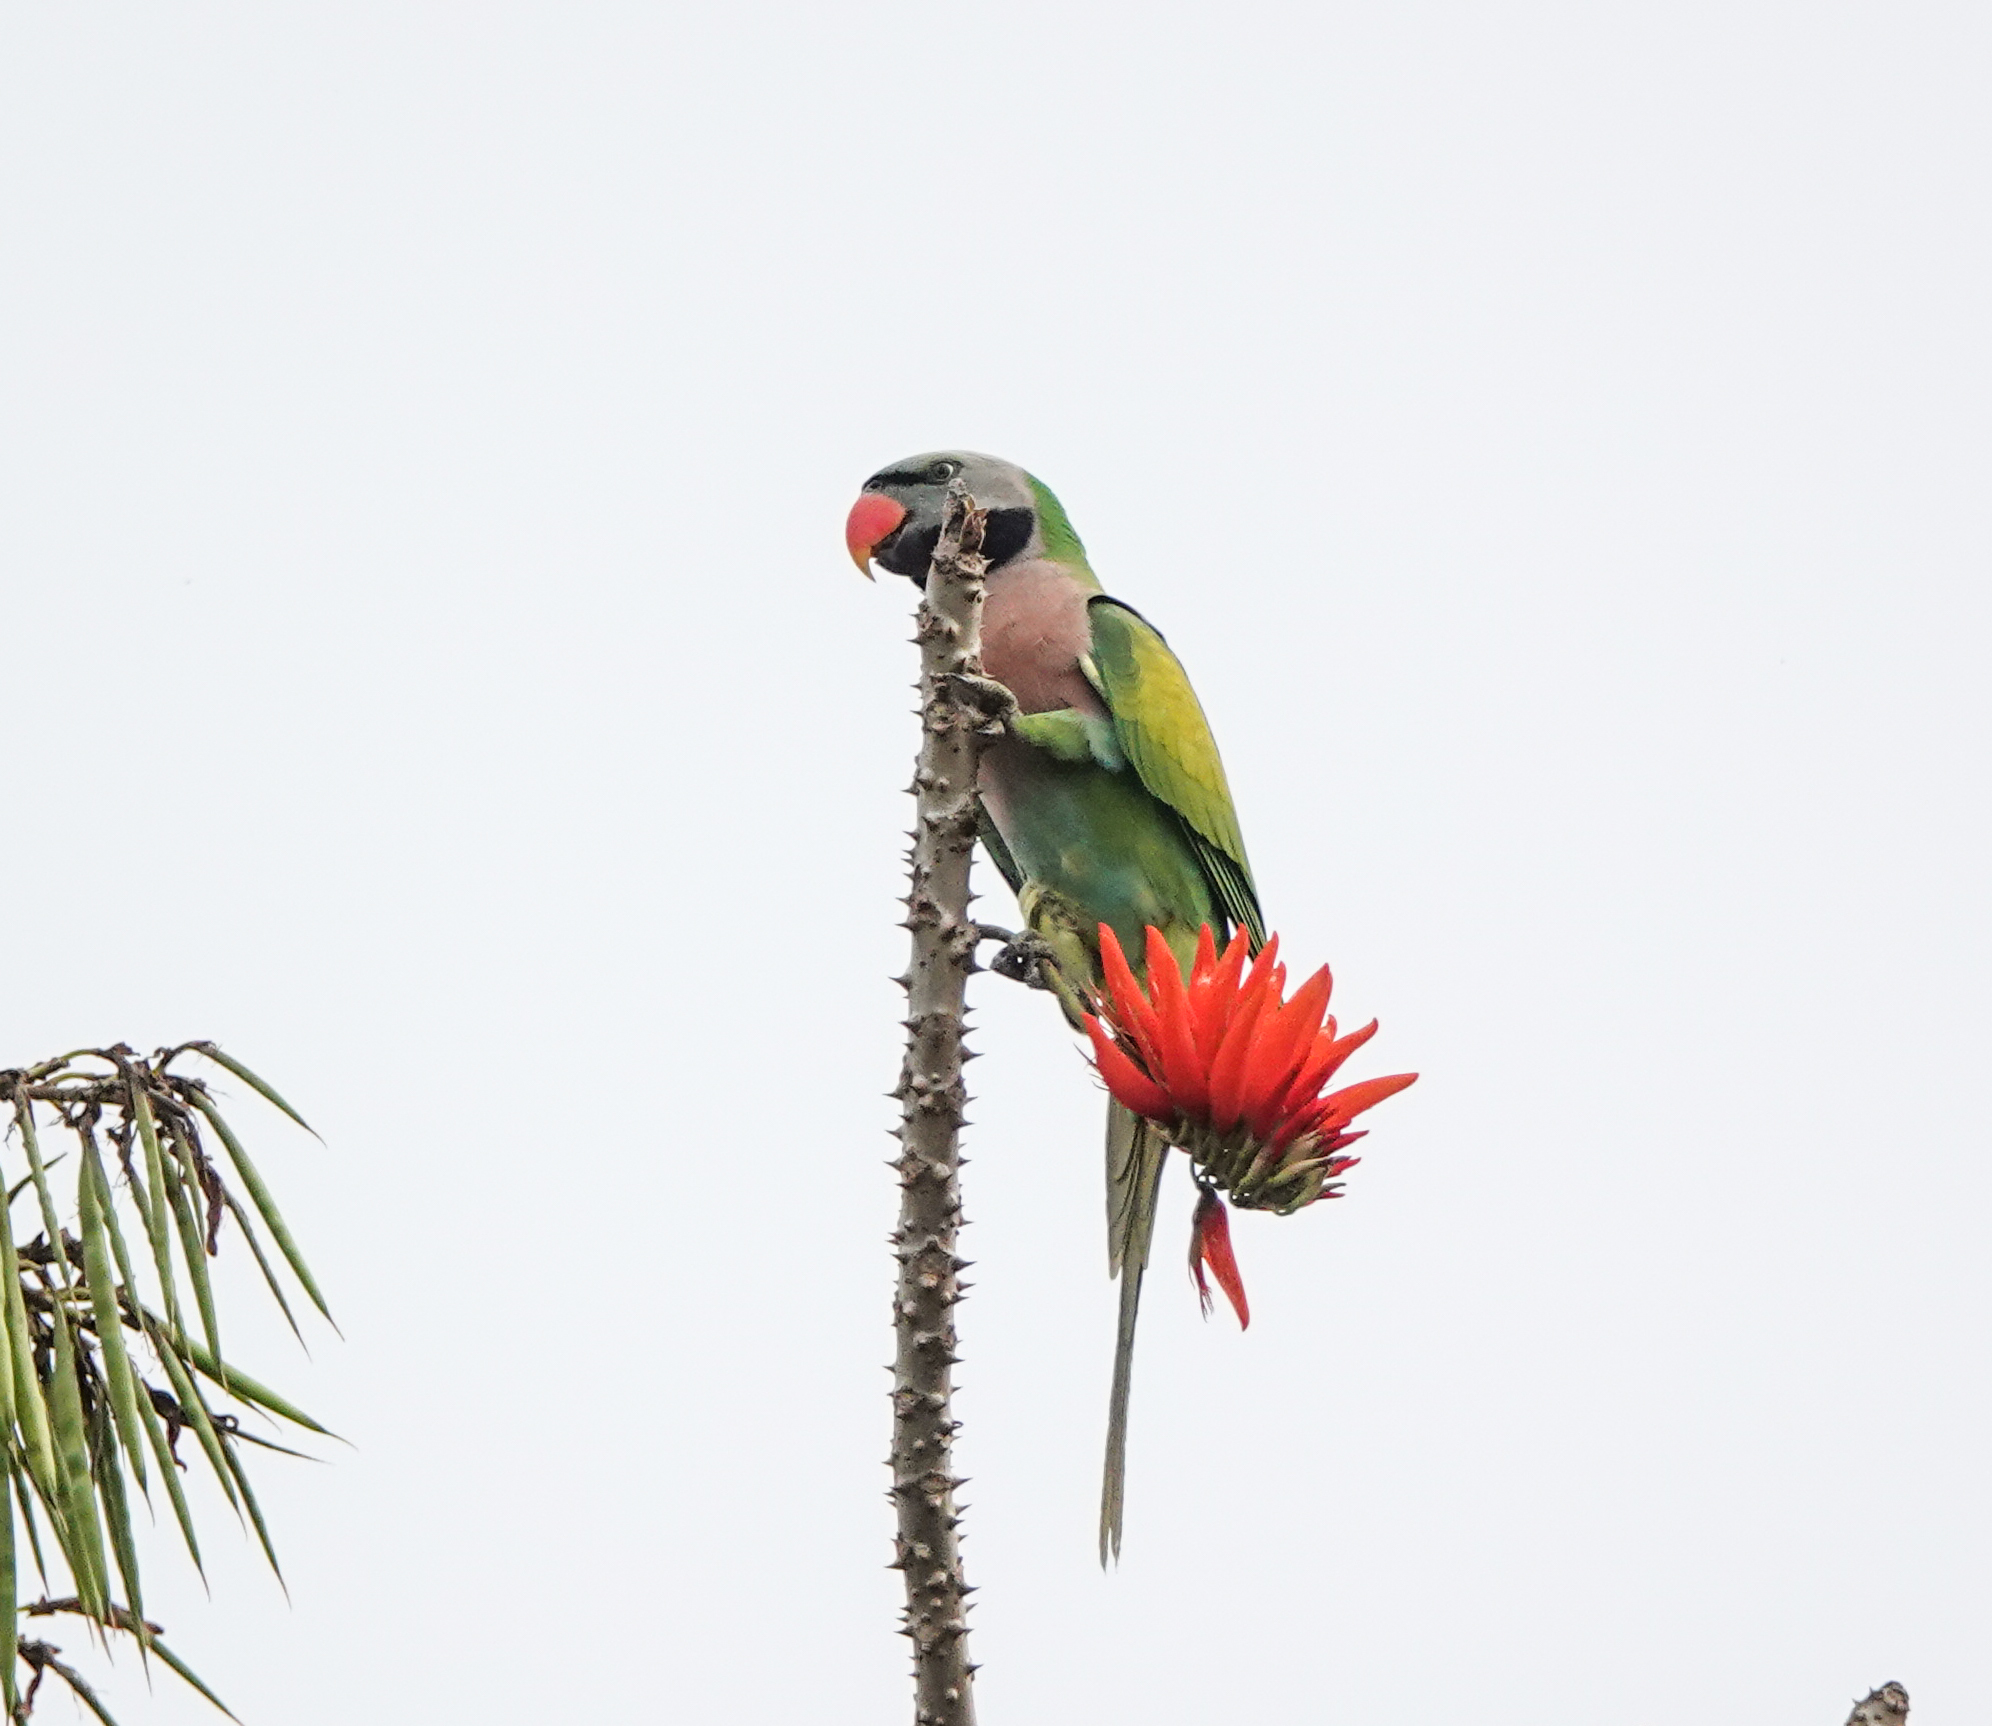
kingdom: Animalia
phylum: Chordata
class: Aves
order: Psittaciformes
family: Psittacidae
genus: Psittacula
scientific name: Psittacula alexandri
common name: Red-breasted parakeet
